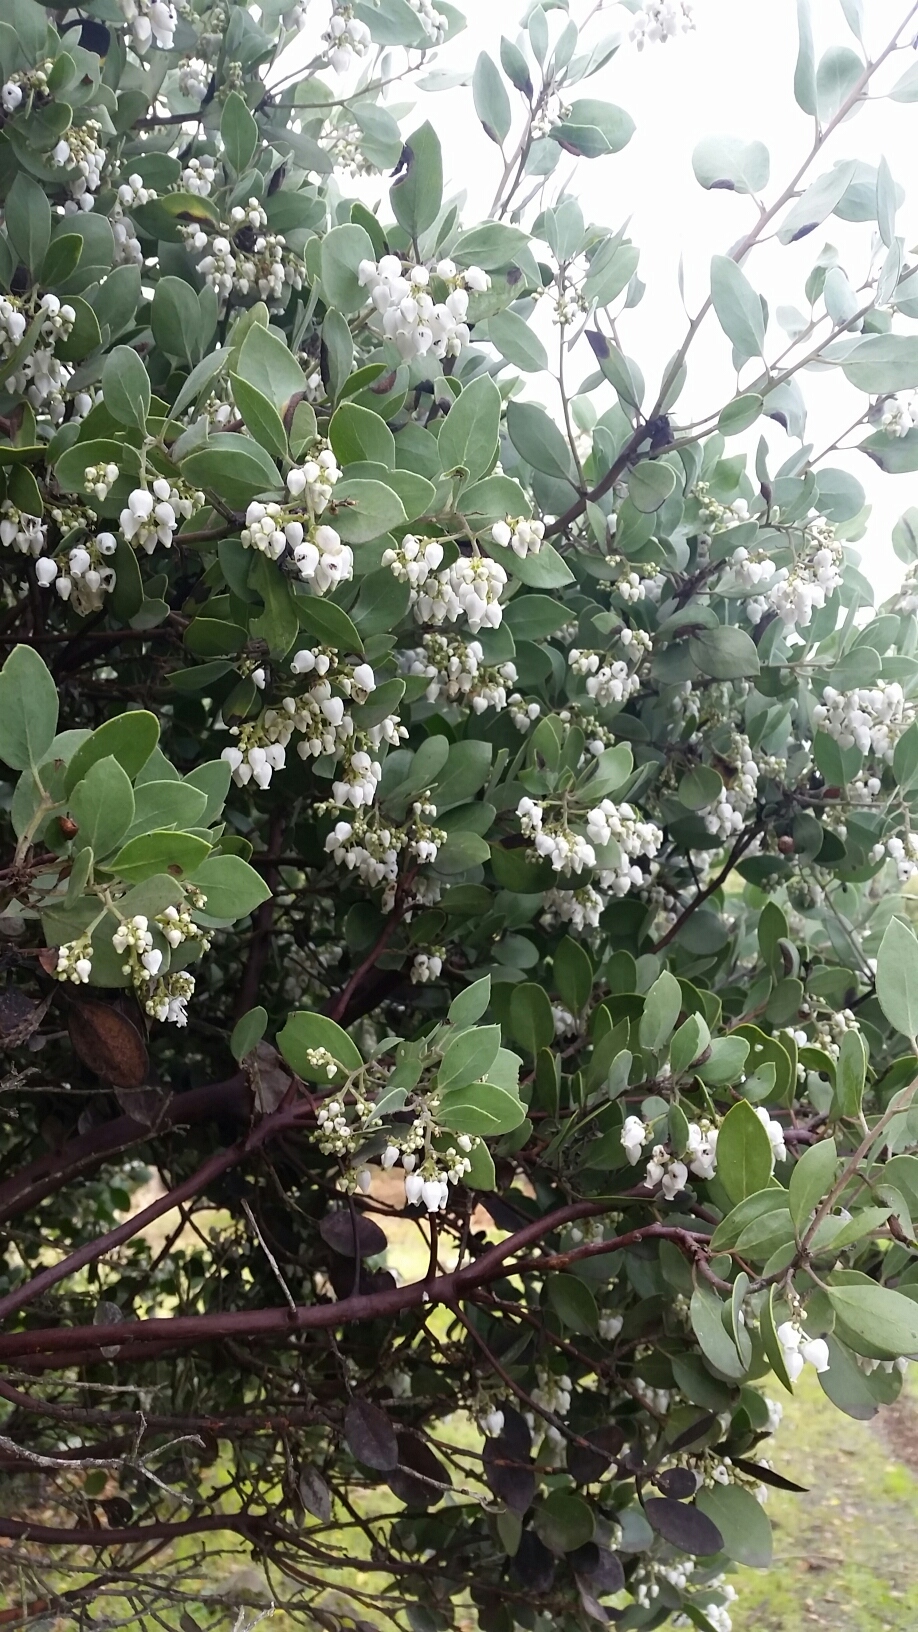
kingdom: Plantae
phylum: Tracheophyta
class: Magnoliopsida
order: Ericales
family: Ericaceae
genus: Arctostaphylos
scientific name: Arctostaphylos manzanita
